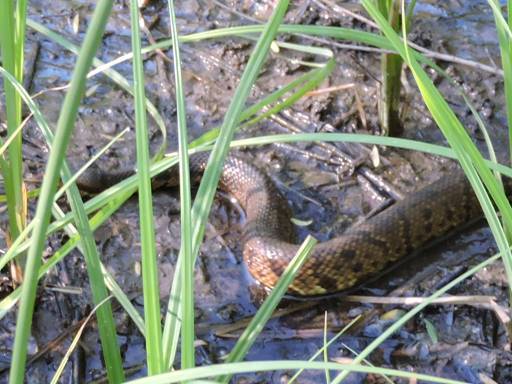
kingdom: Animalia
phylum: Chordata
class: Squamata
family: Viperidae
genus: Agkistrodon
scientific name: Agkistrodon piscivorus
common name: Cottonmouth
